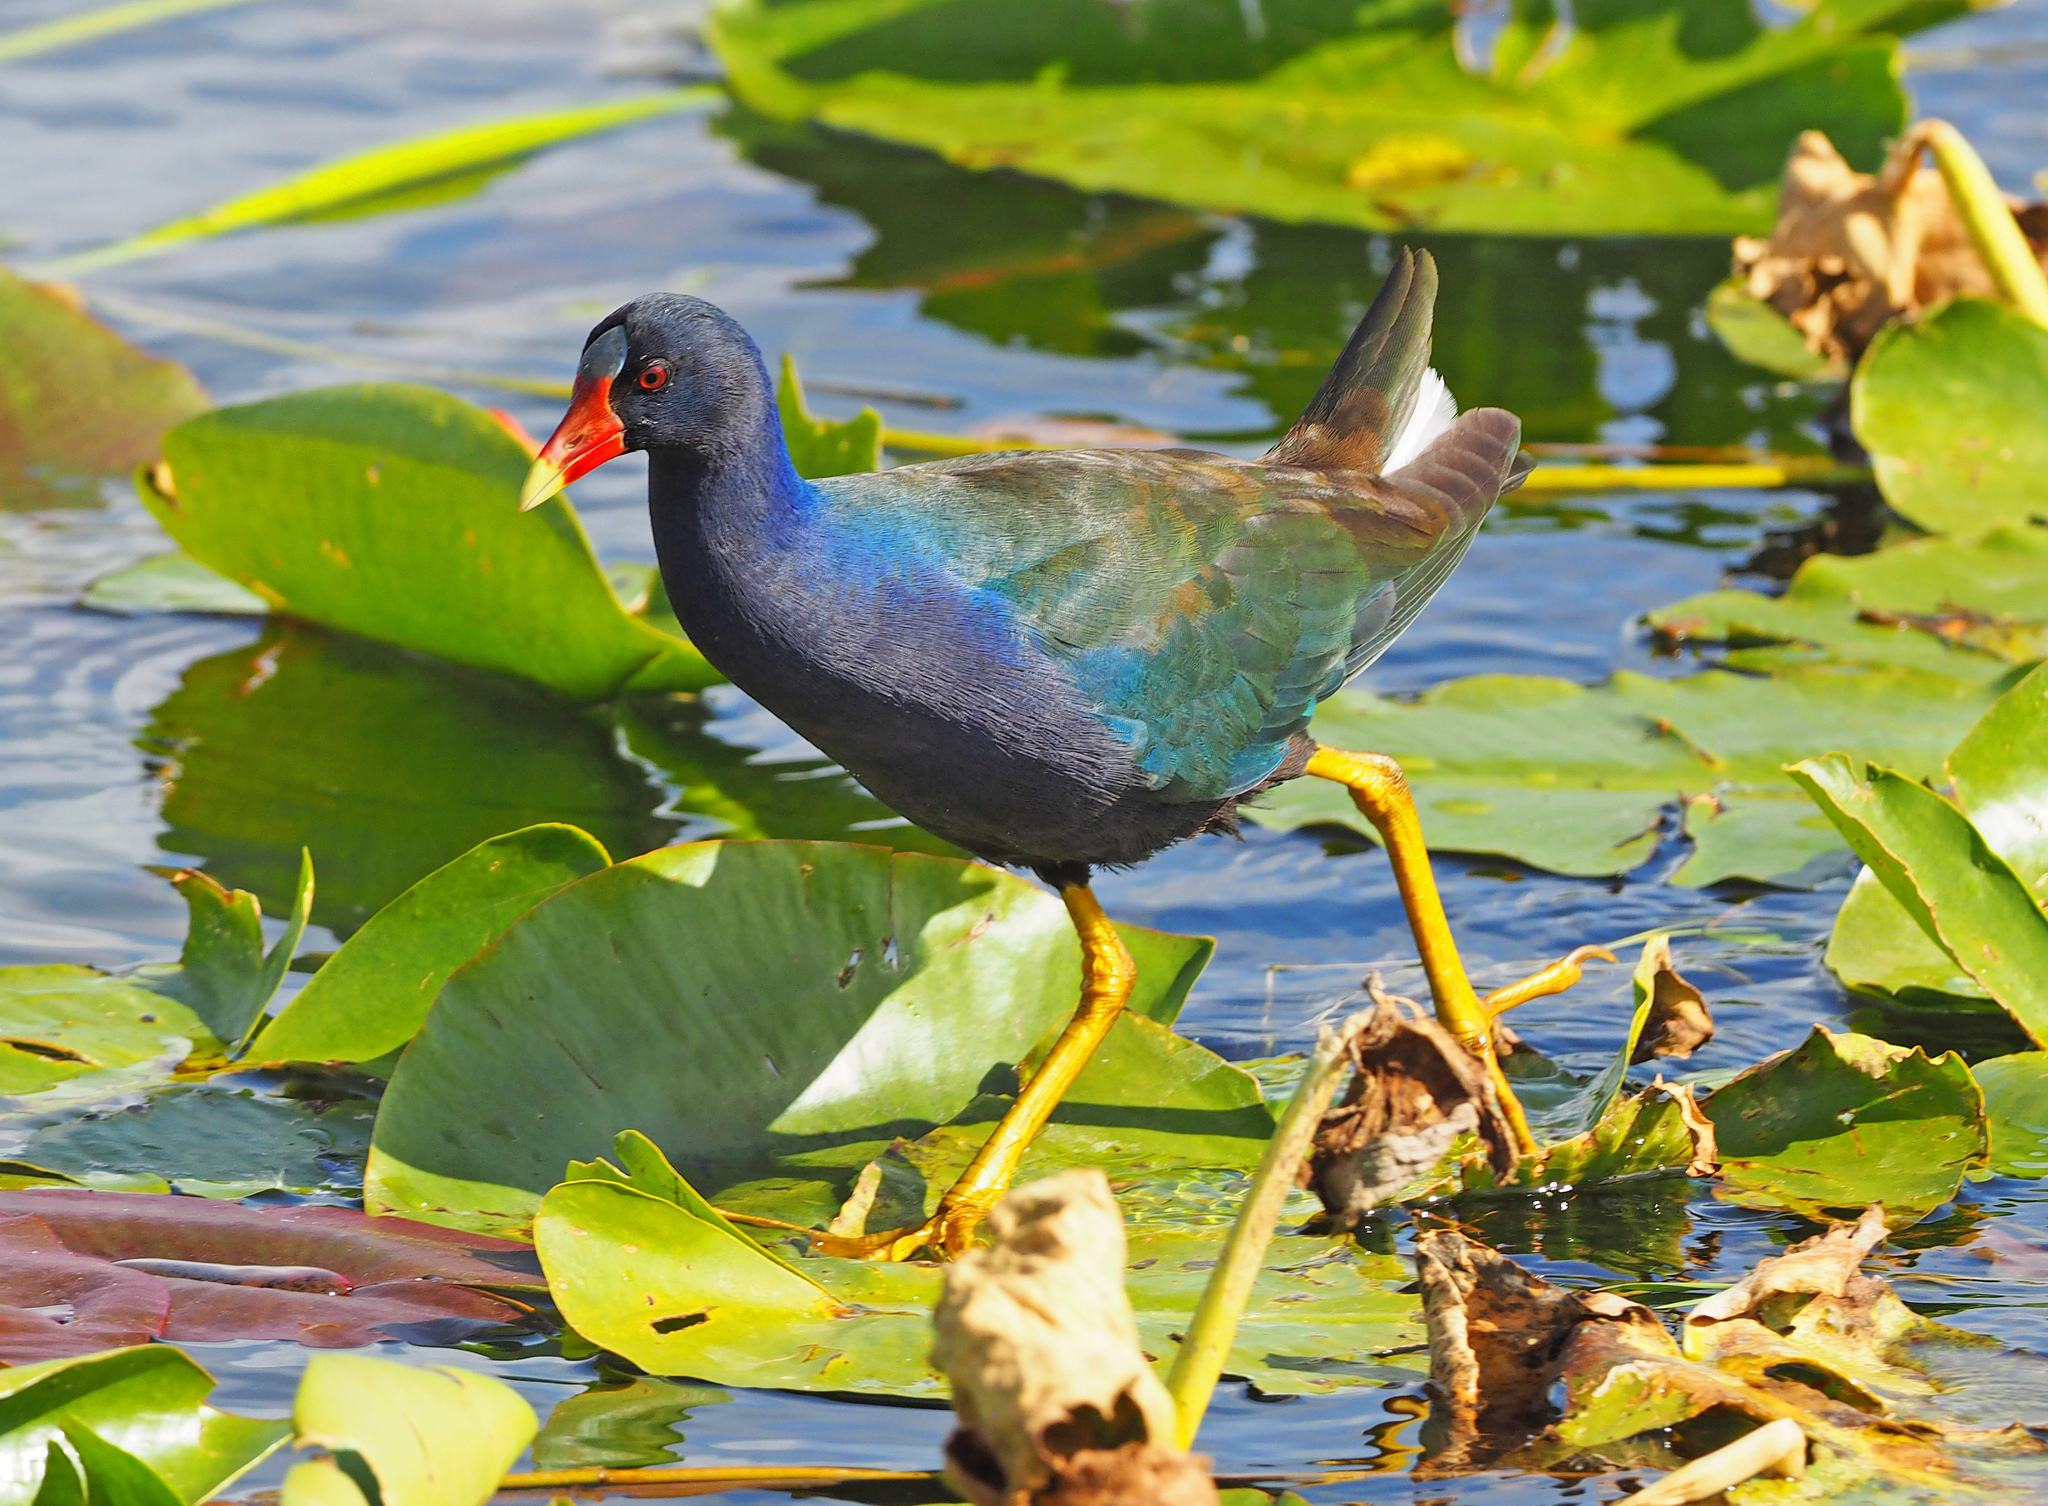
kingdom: Animalia
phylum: Chordata
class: Aves
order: Gruiformes
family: Rallidae
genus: Porphyrio
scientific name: Porphyrio martinica
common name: Purple gallinule
